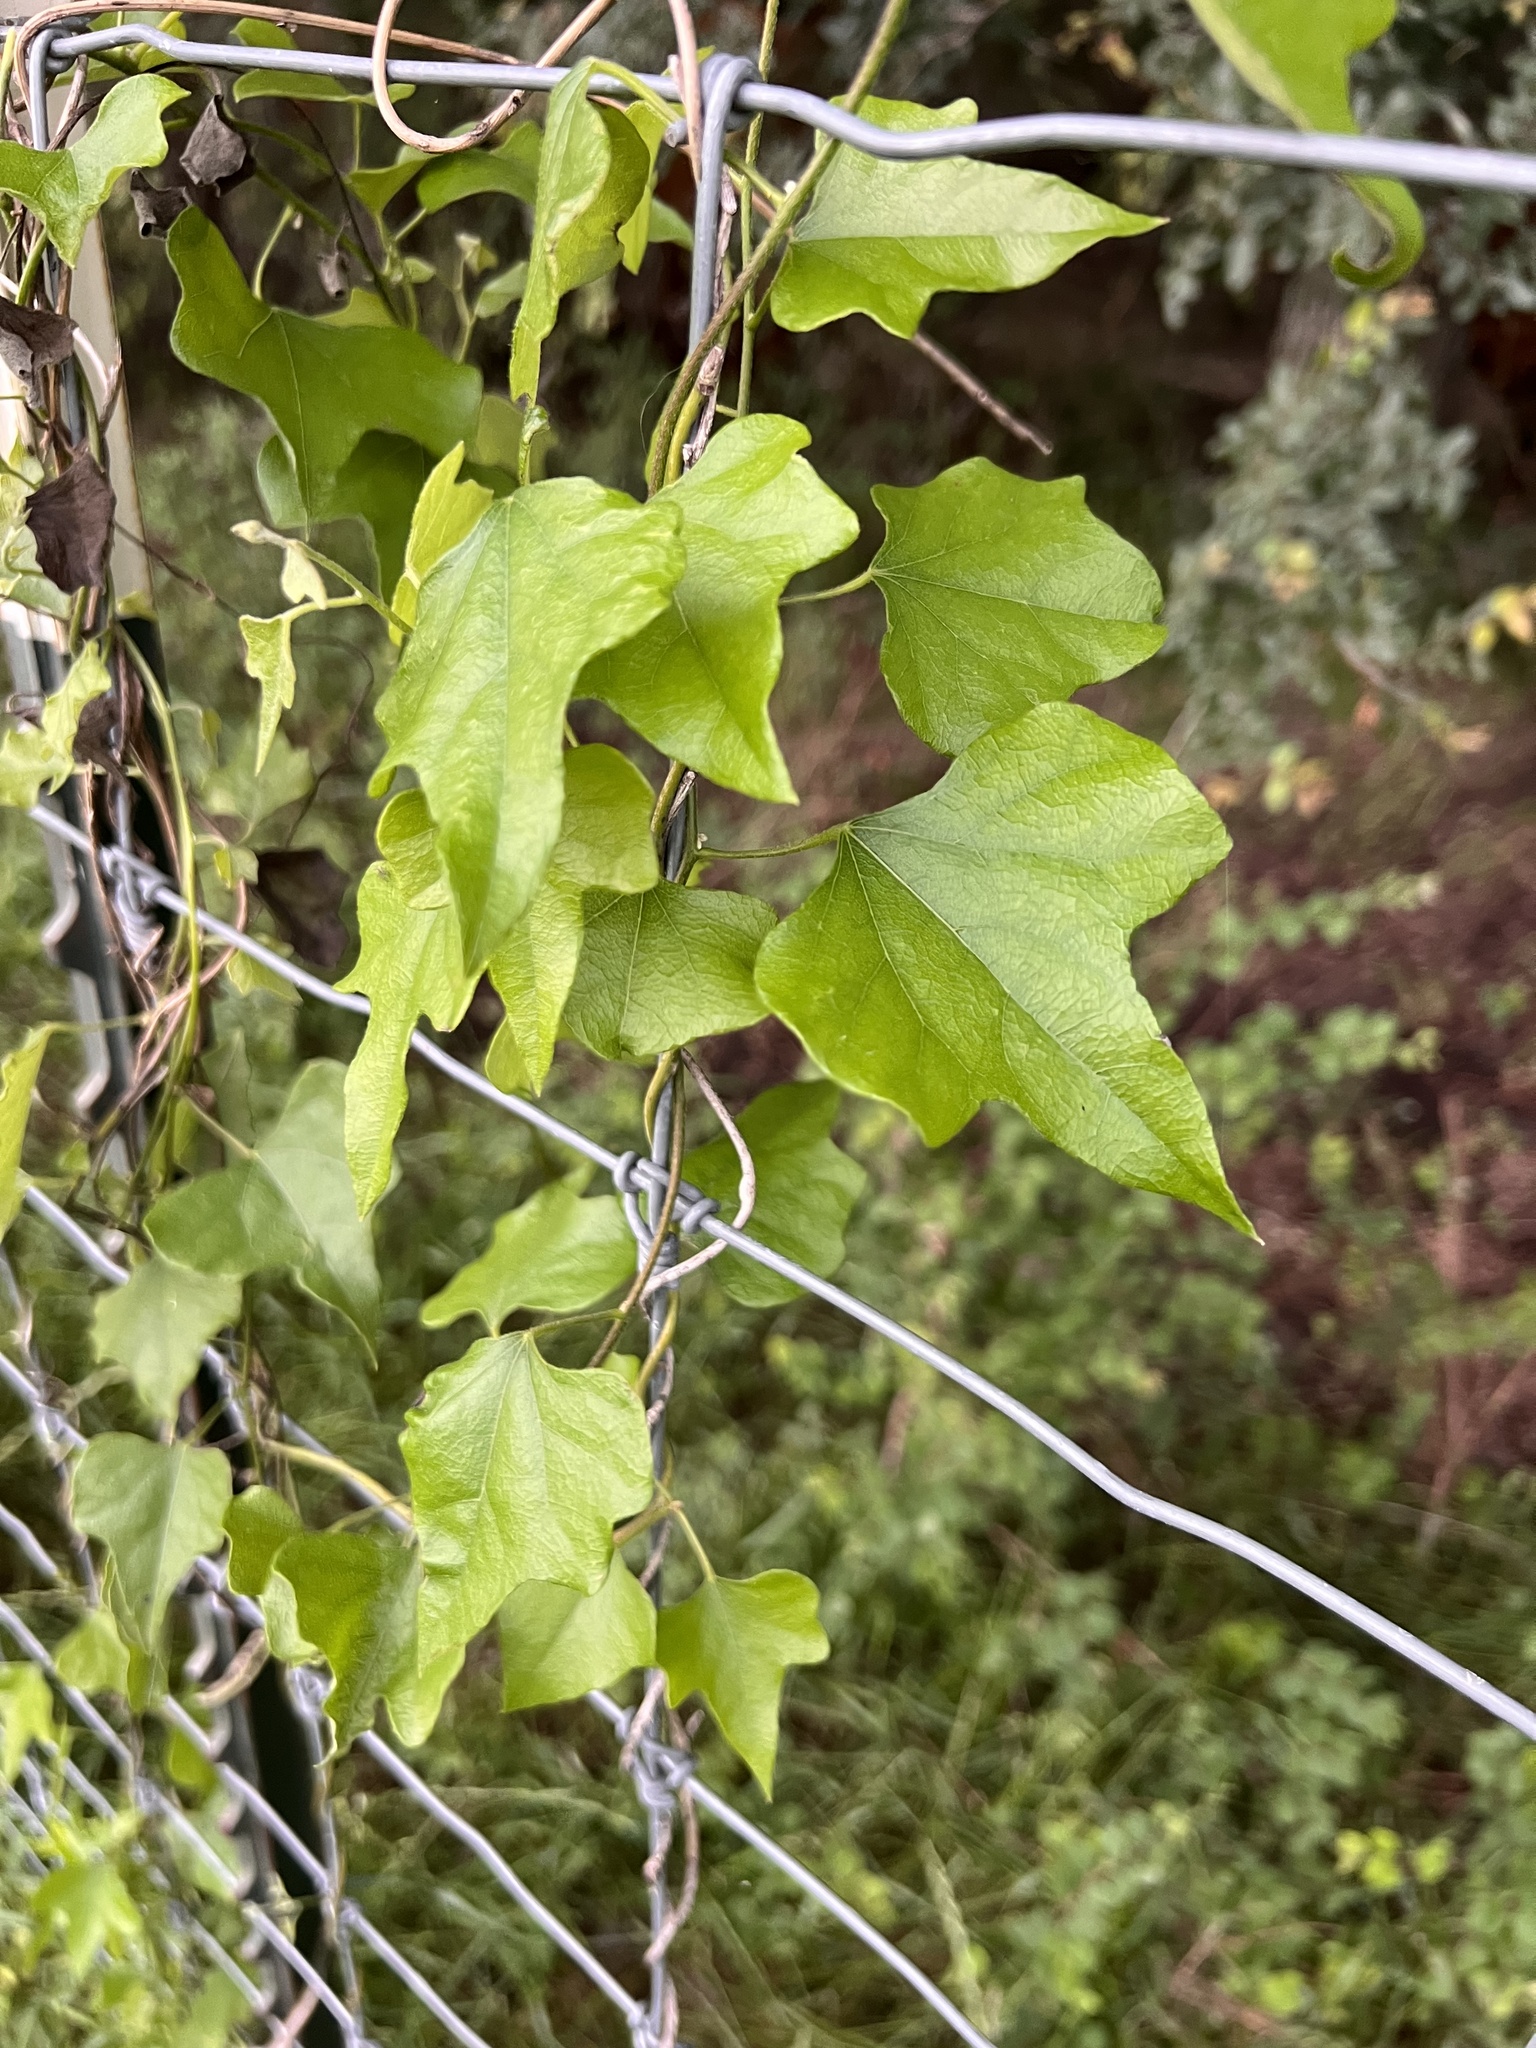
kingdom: Plantae
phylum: Tracheophyta
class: Magnoliopsida
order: Ranunculales
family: Menispermaceae
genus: Cocculus
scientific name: Cocculus carolinus
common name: Carolina moonseed
